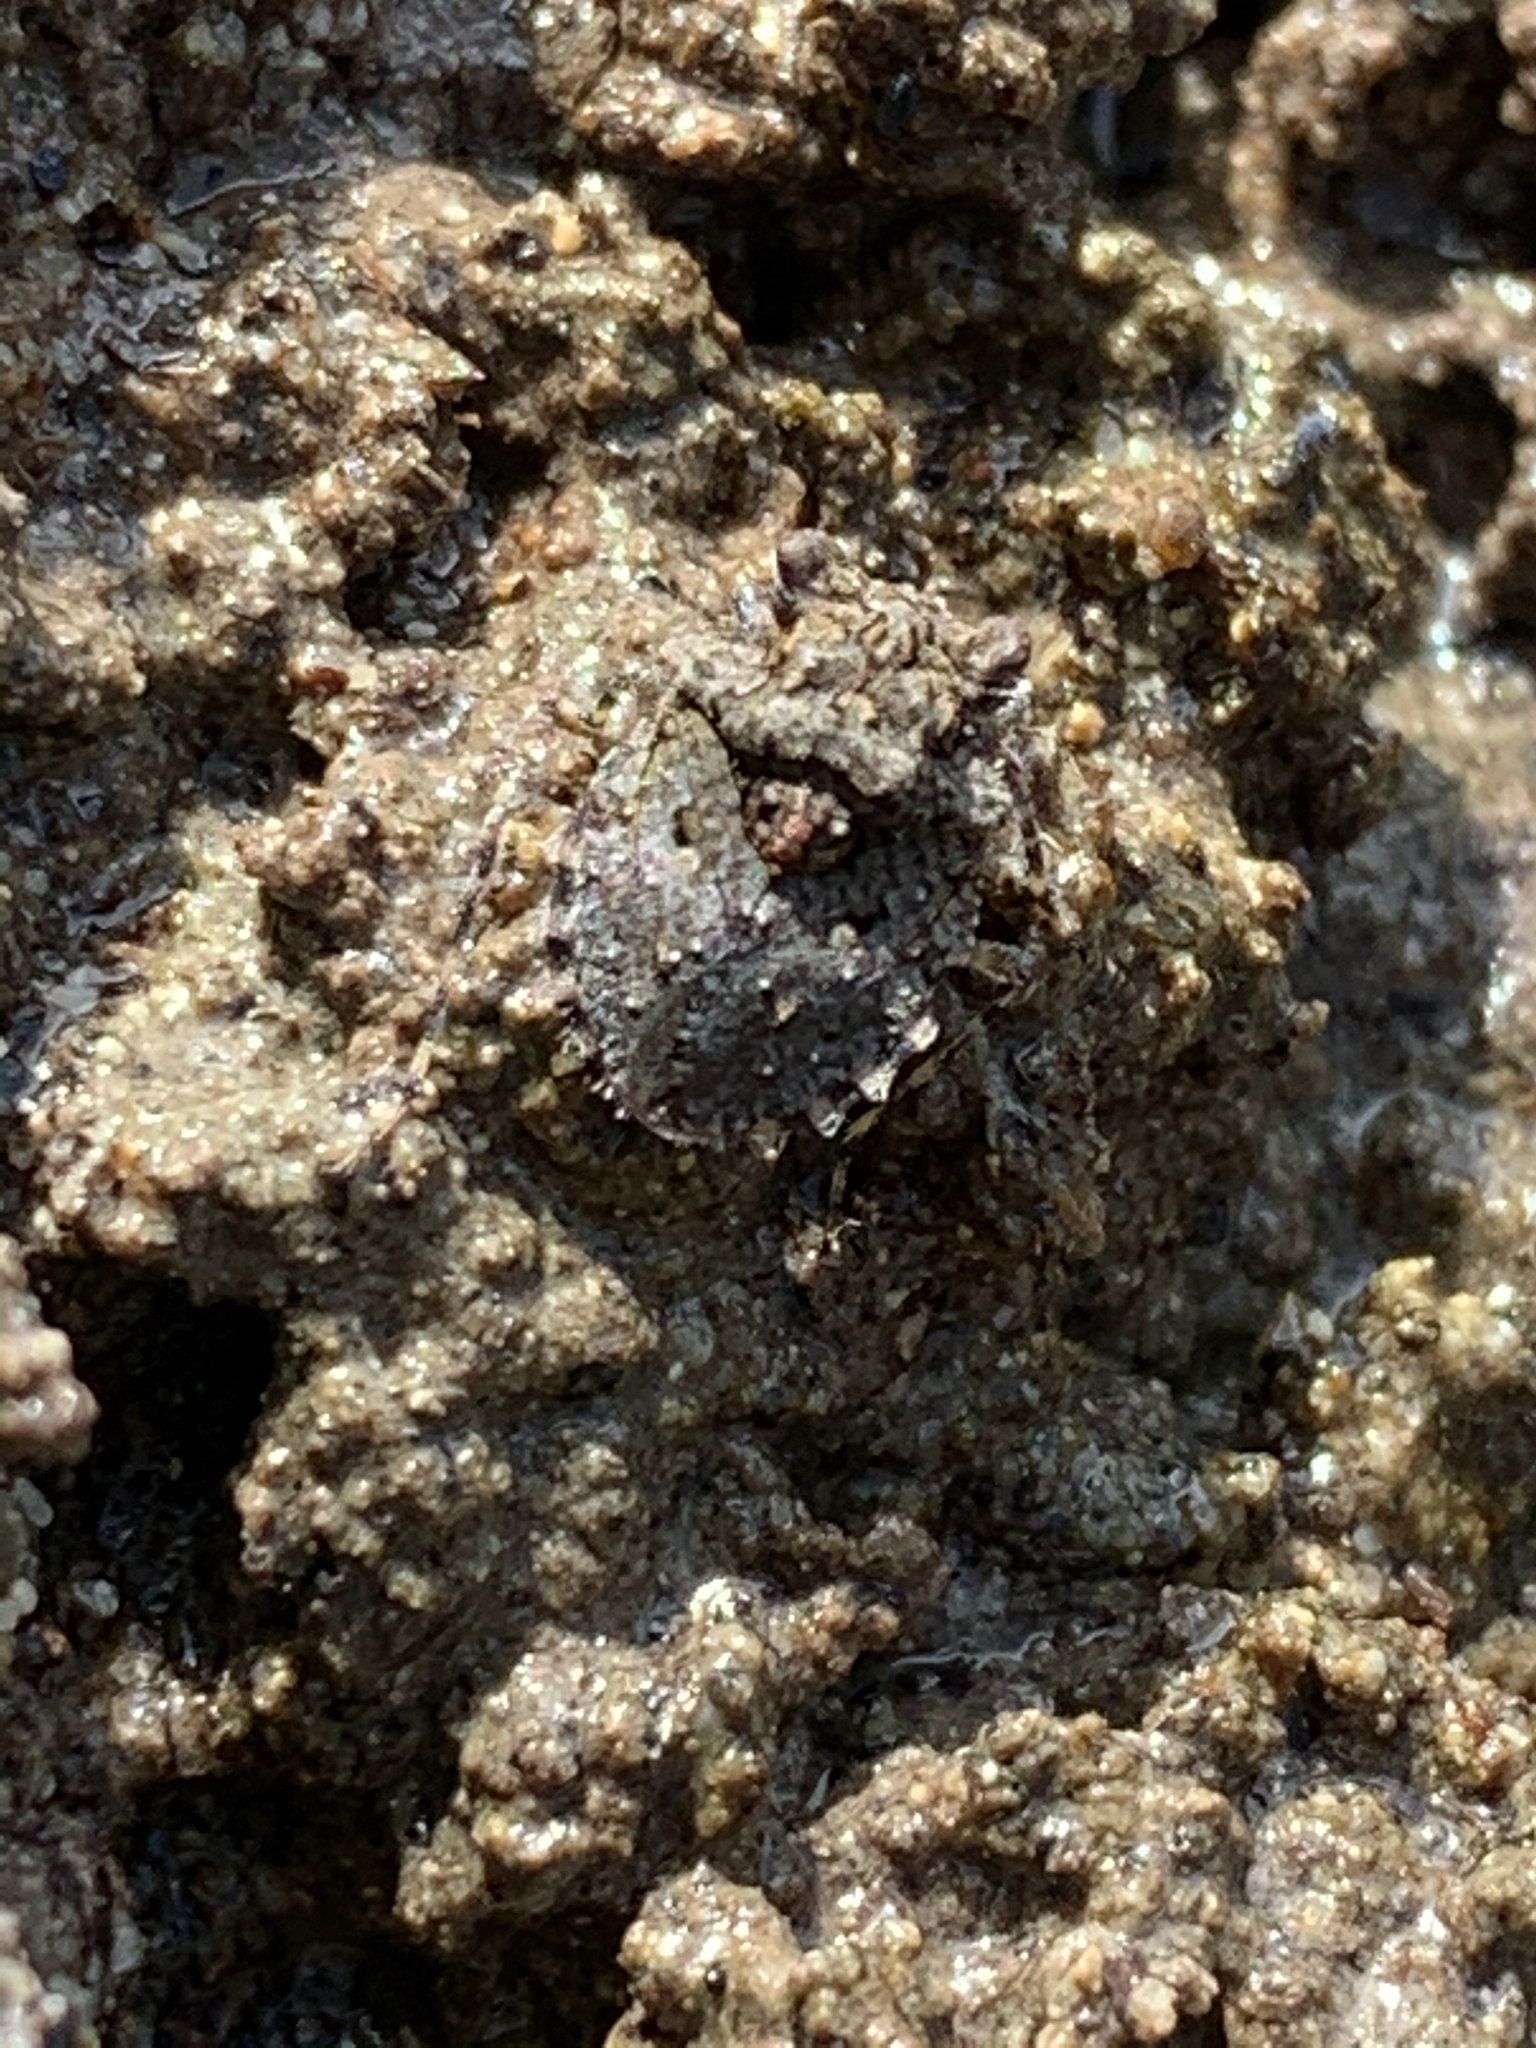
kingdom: Animalia
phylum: Arthropoda
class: Insecta
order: Hemiptera
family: Gelastocoridae
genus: Gelastocoris
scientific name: Gelastocoris oculatus
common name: Toad bug
